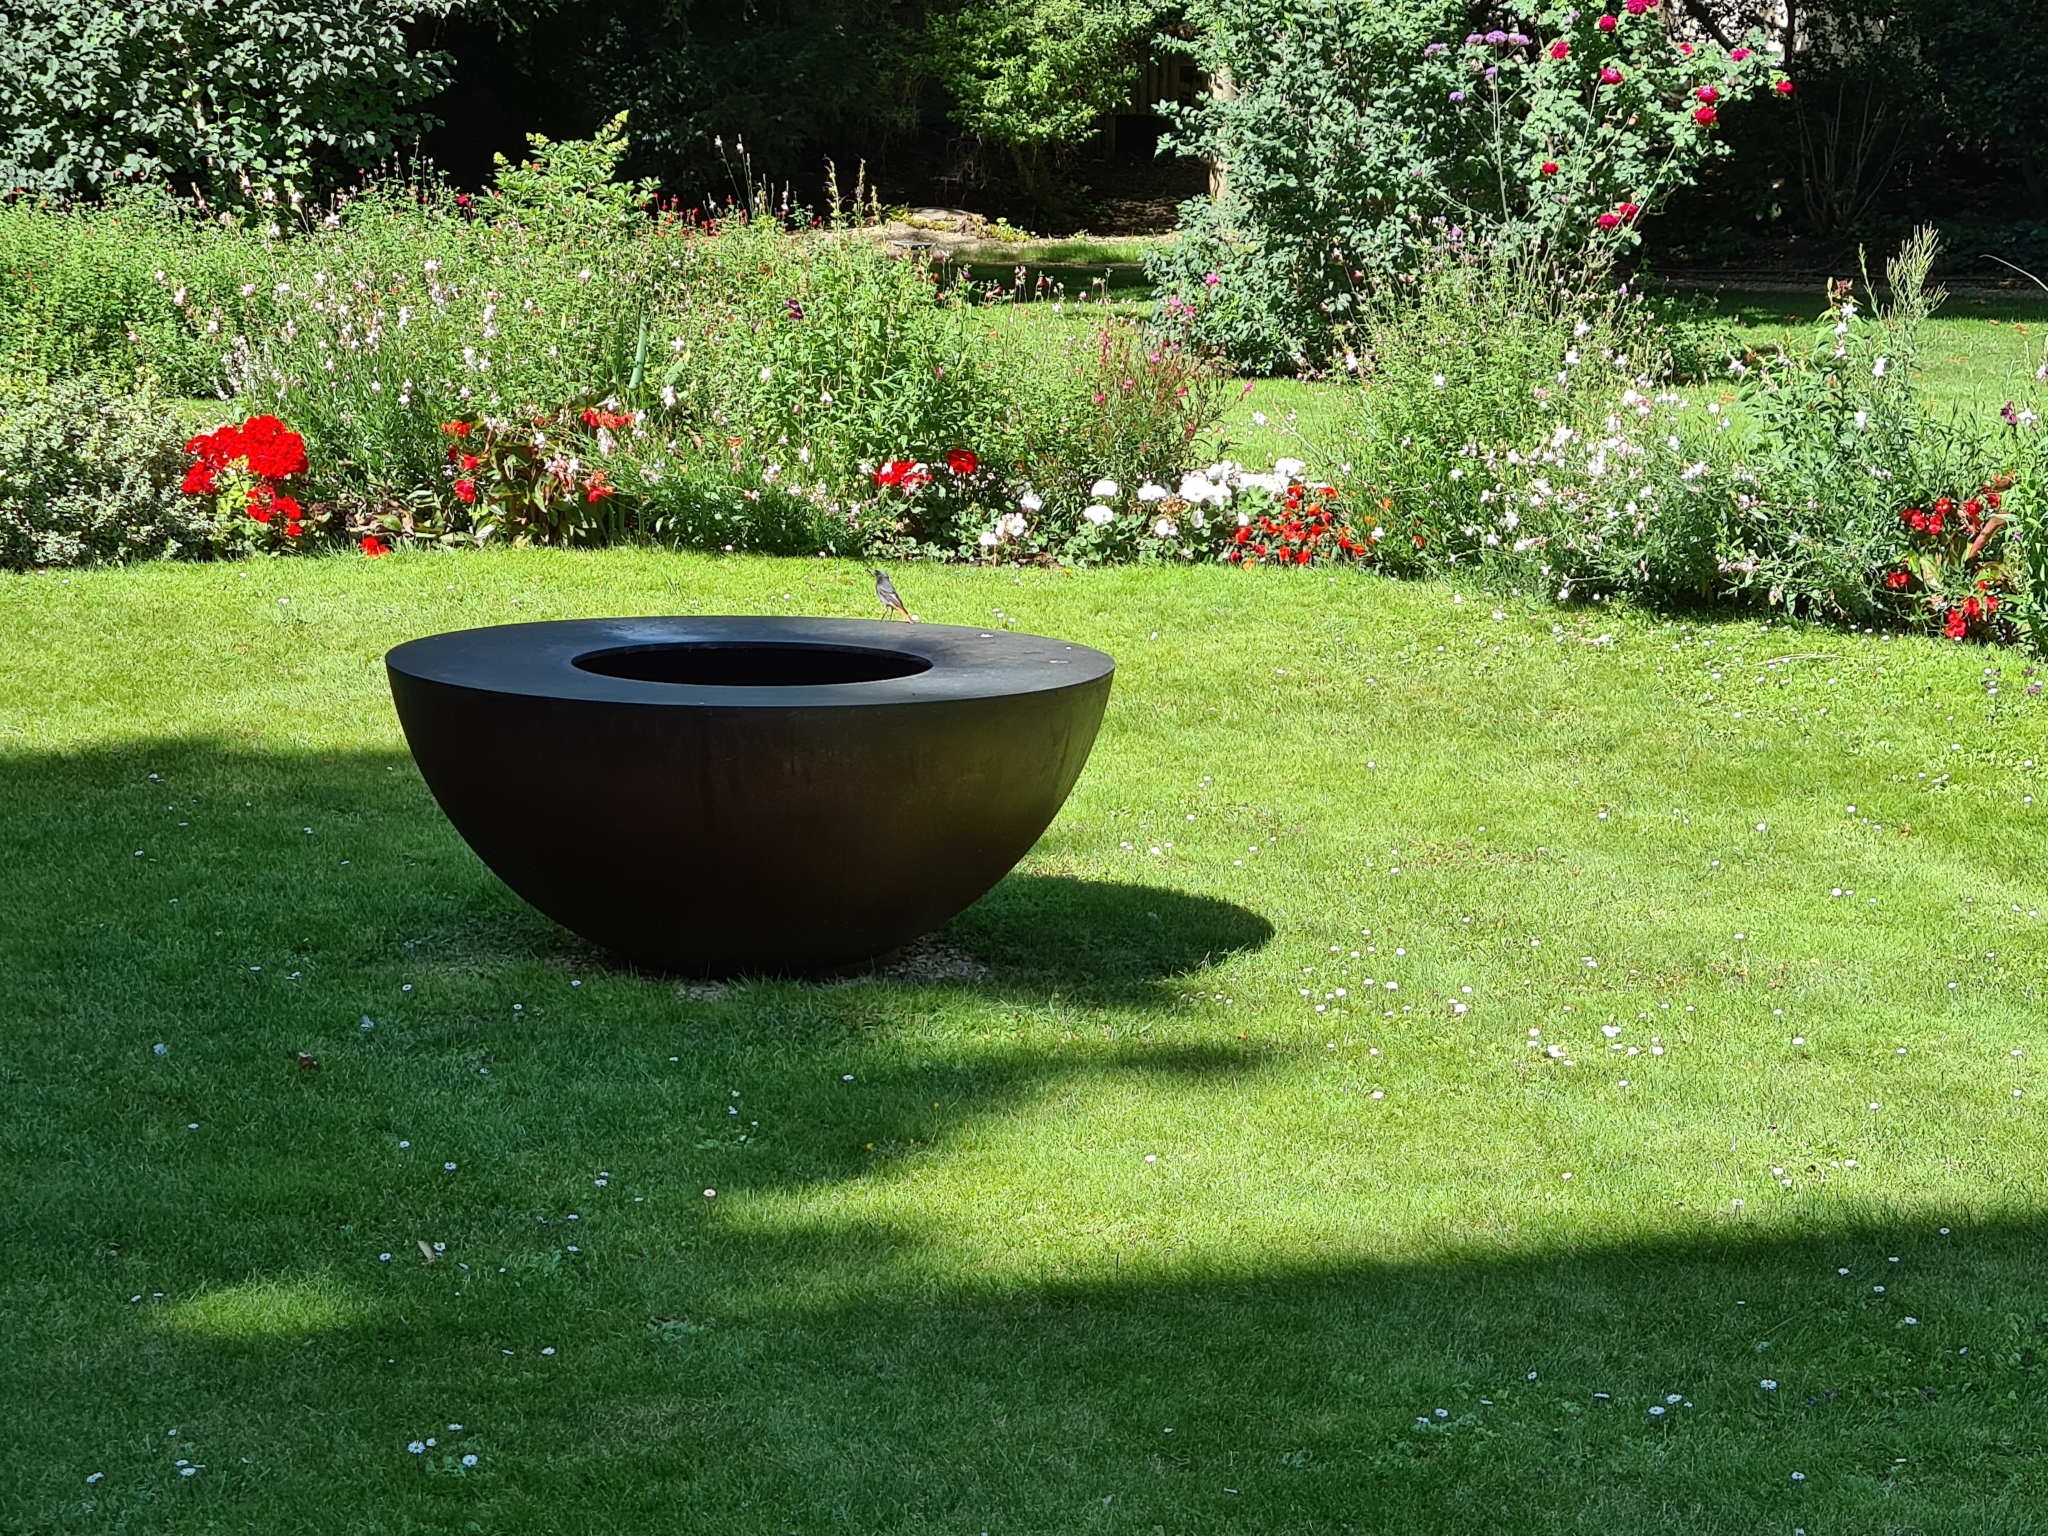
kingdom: Animalia
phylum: Chordata
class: Aves
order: Passeriformes
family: Muscicapidae
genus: Phoenicurus
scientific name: Phoenicurus ochruros
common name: Black redstart
